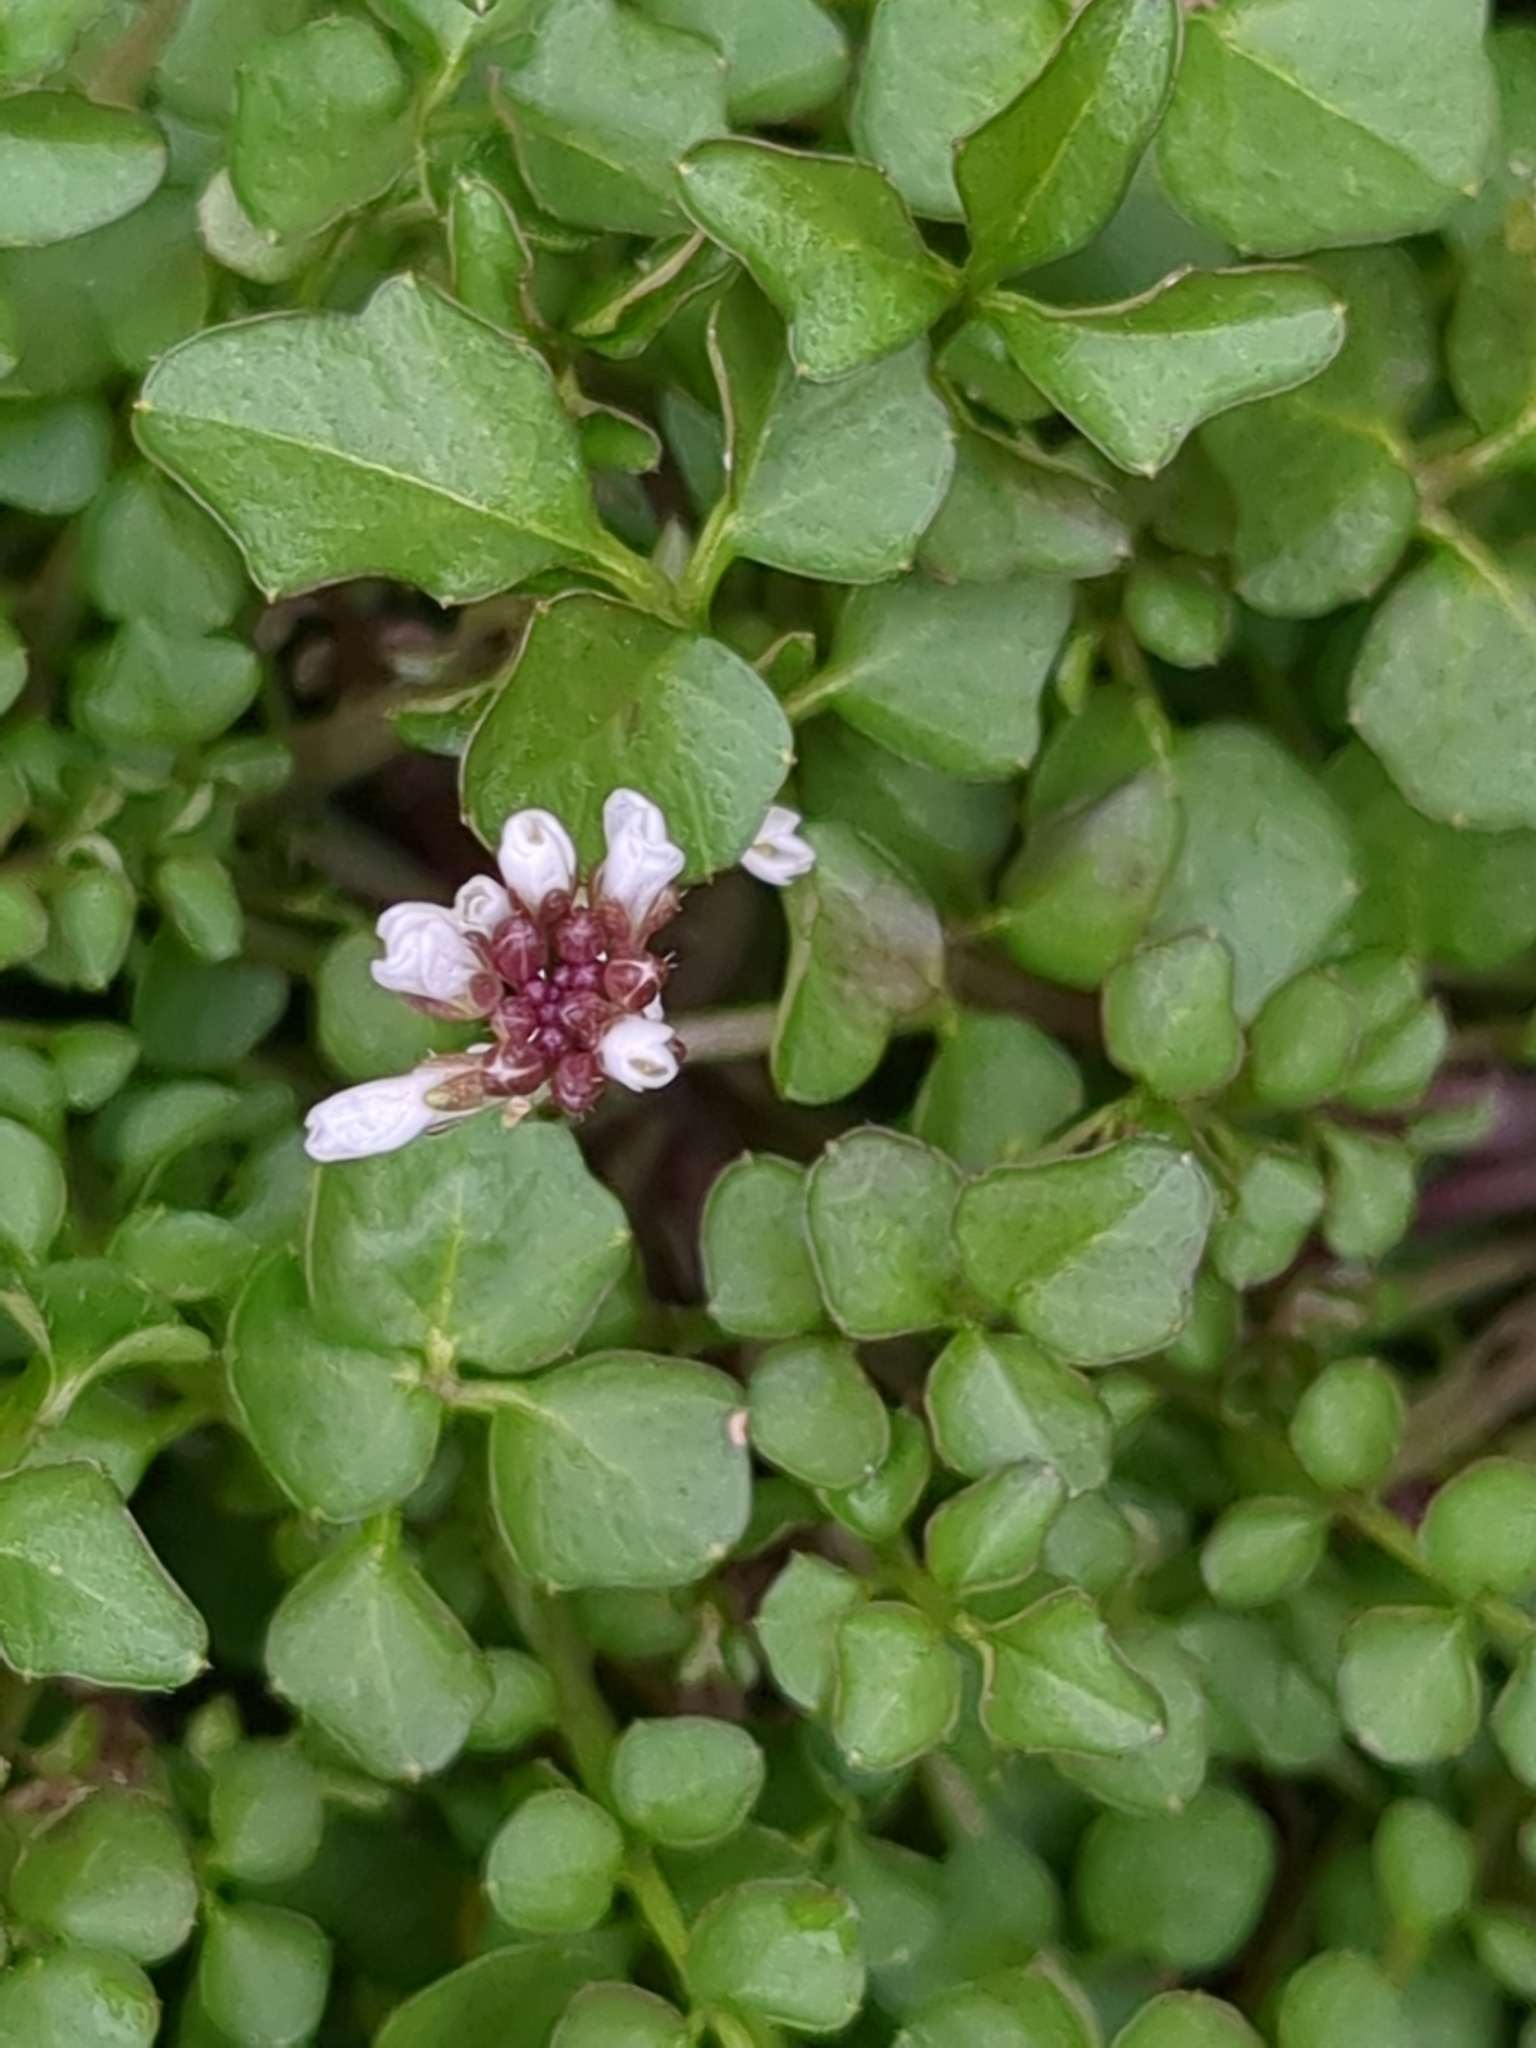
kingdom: Plantae
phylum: Tracheophyta
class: Magnoliopsida
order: Brassicales
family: Brassicaceae
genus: Cardamine
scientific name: Cardamine hirsuta
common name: Hairy bittercress
